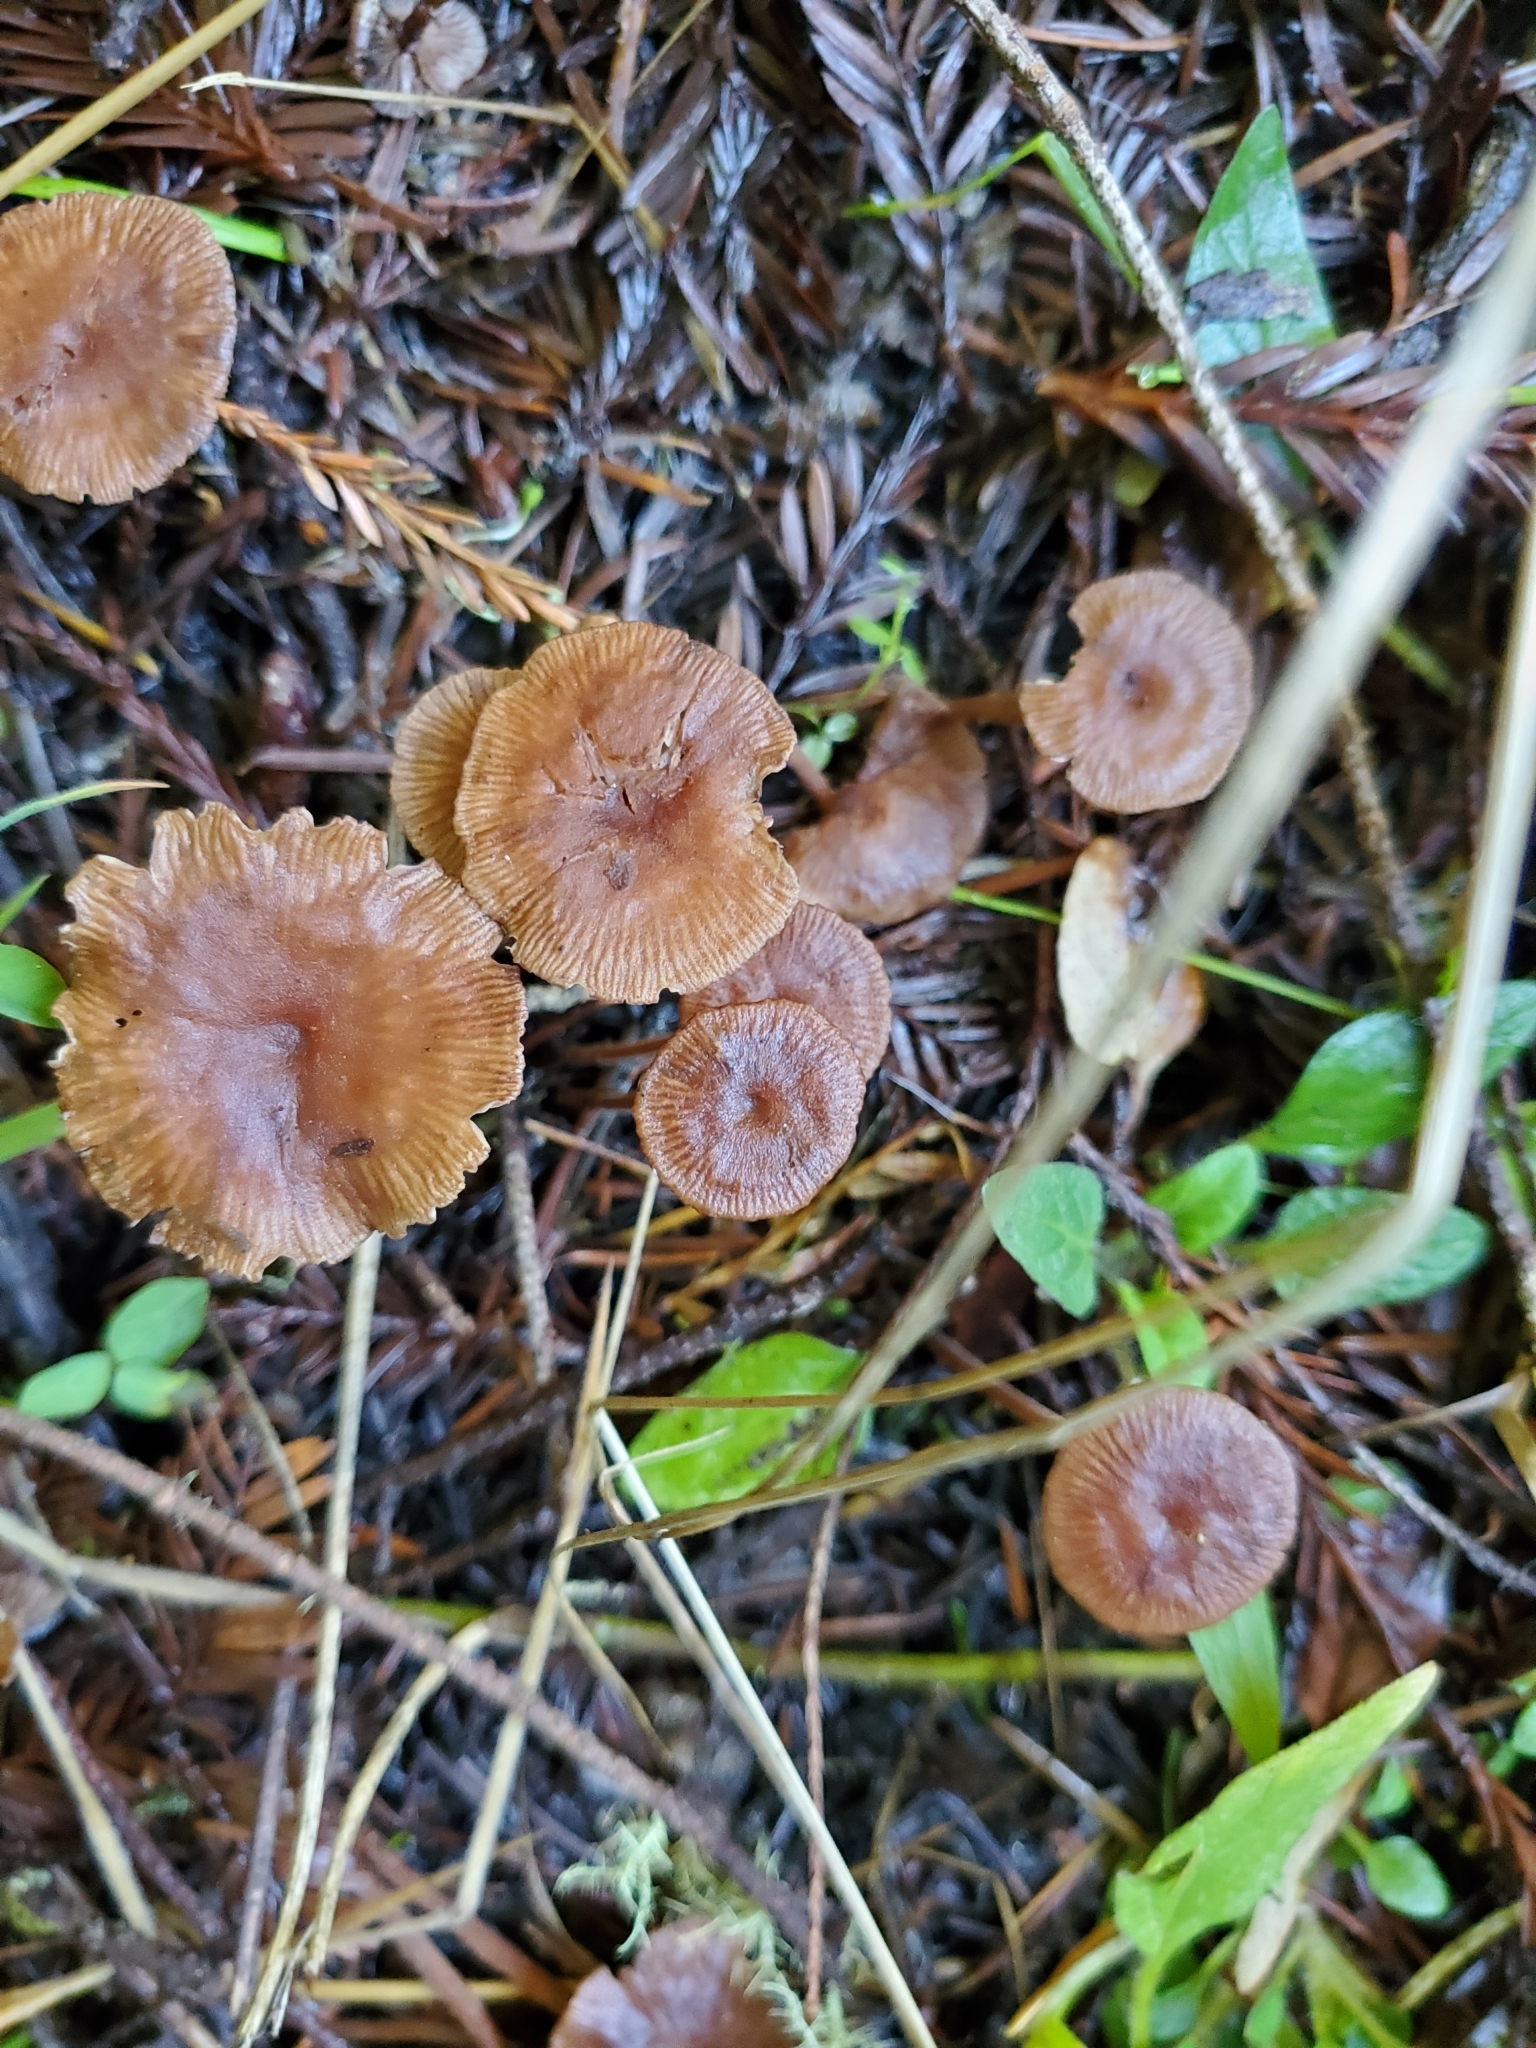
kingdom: Fungi
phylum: Basidiomycota
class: Agaricomycetes
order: Agaricales
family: Omphalotaceae
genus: Collybiopsis
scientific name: Collybiopsis villosipes
